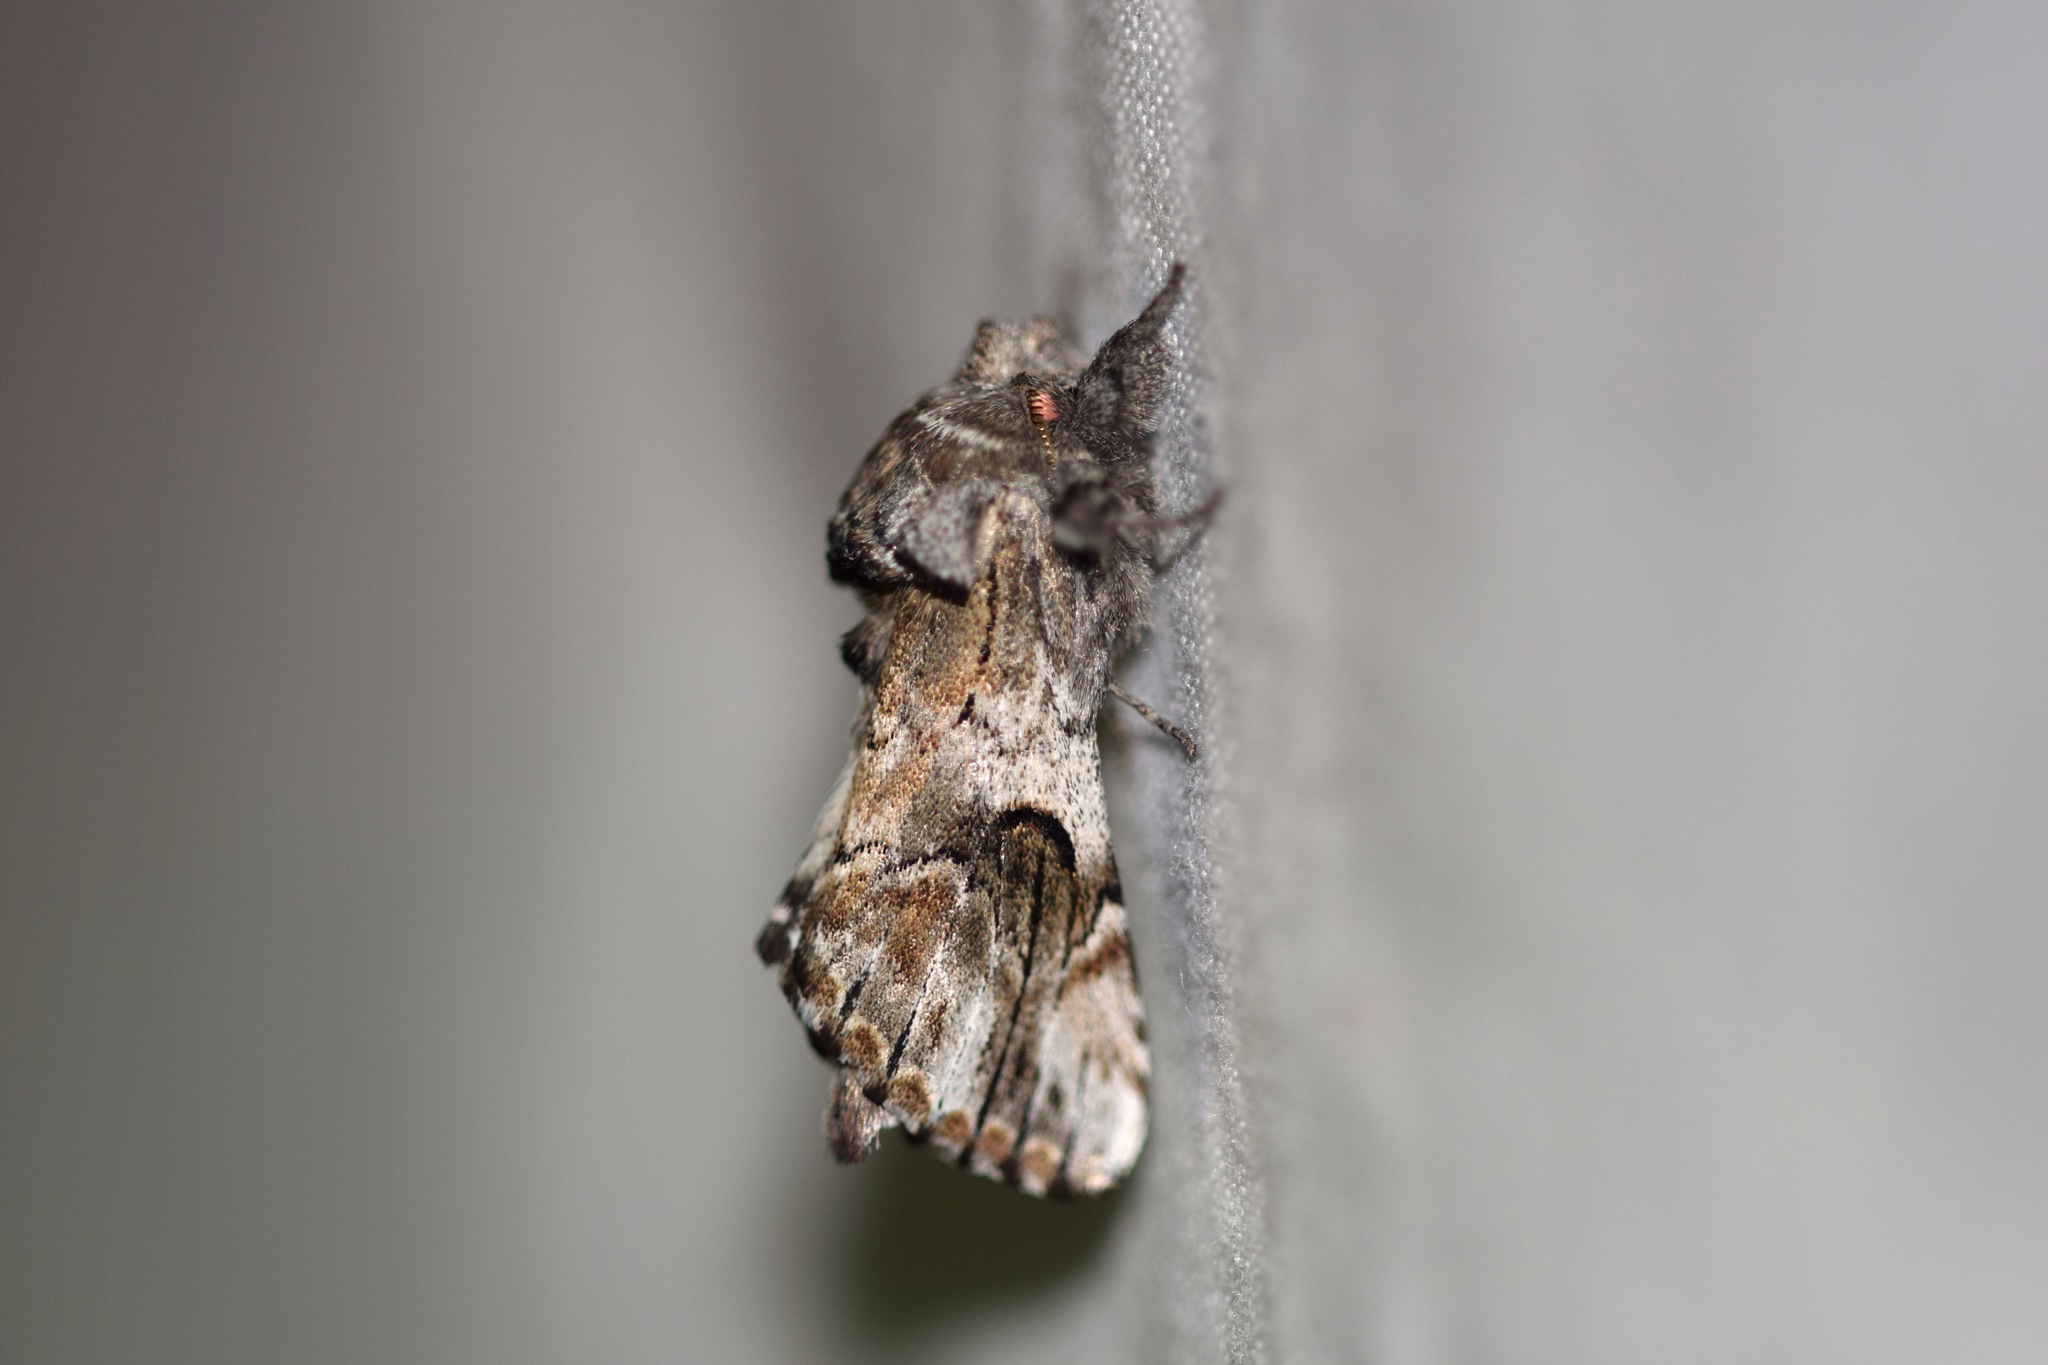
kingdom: Animalia
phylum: Arthropoda
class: Insecta
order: Lepidoptera
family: Notodontidae
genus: Schizura
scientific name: Schizura
